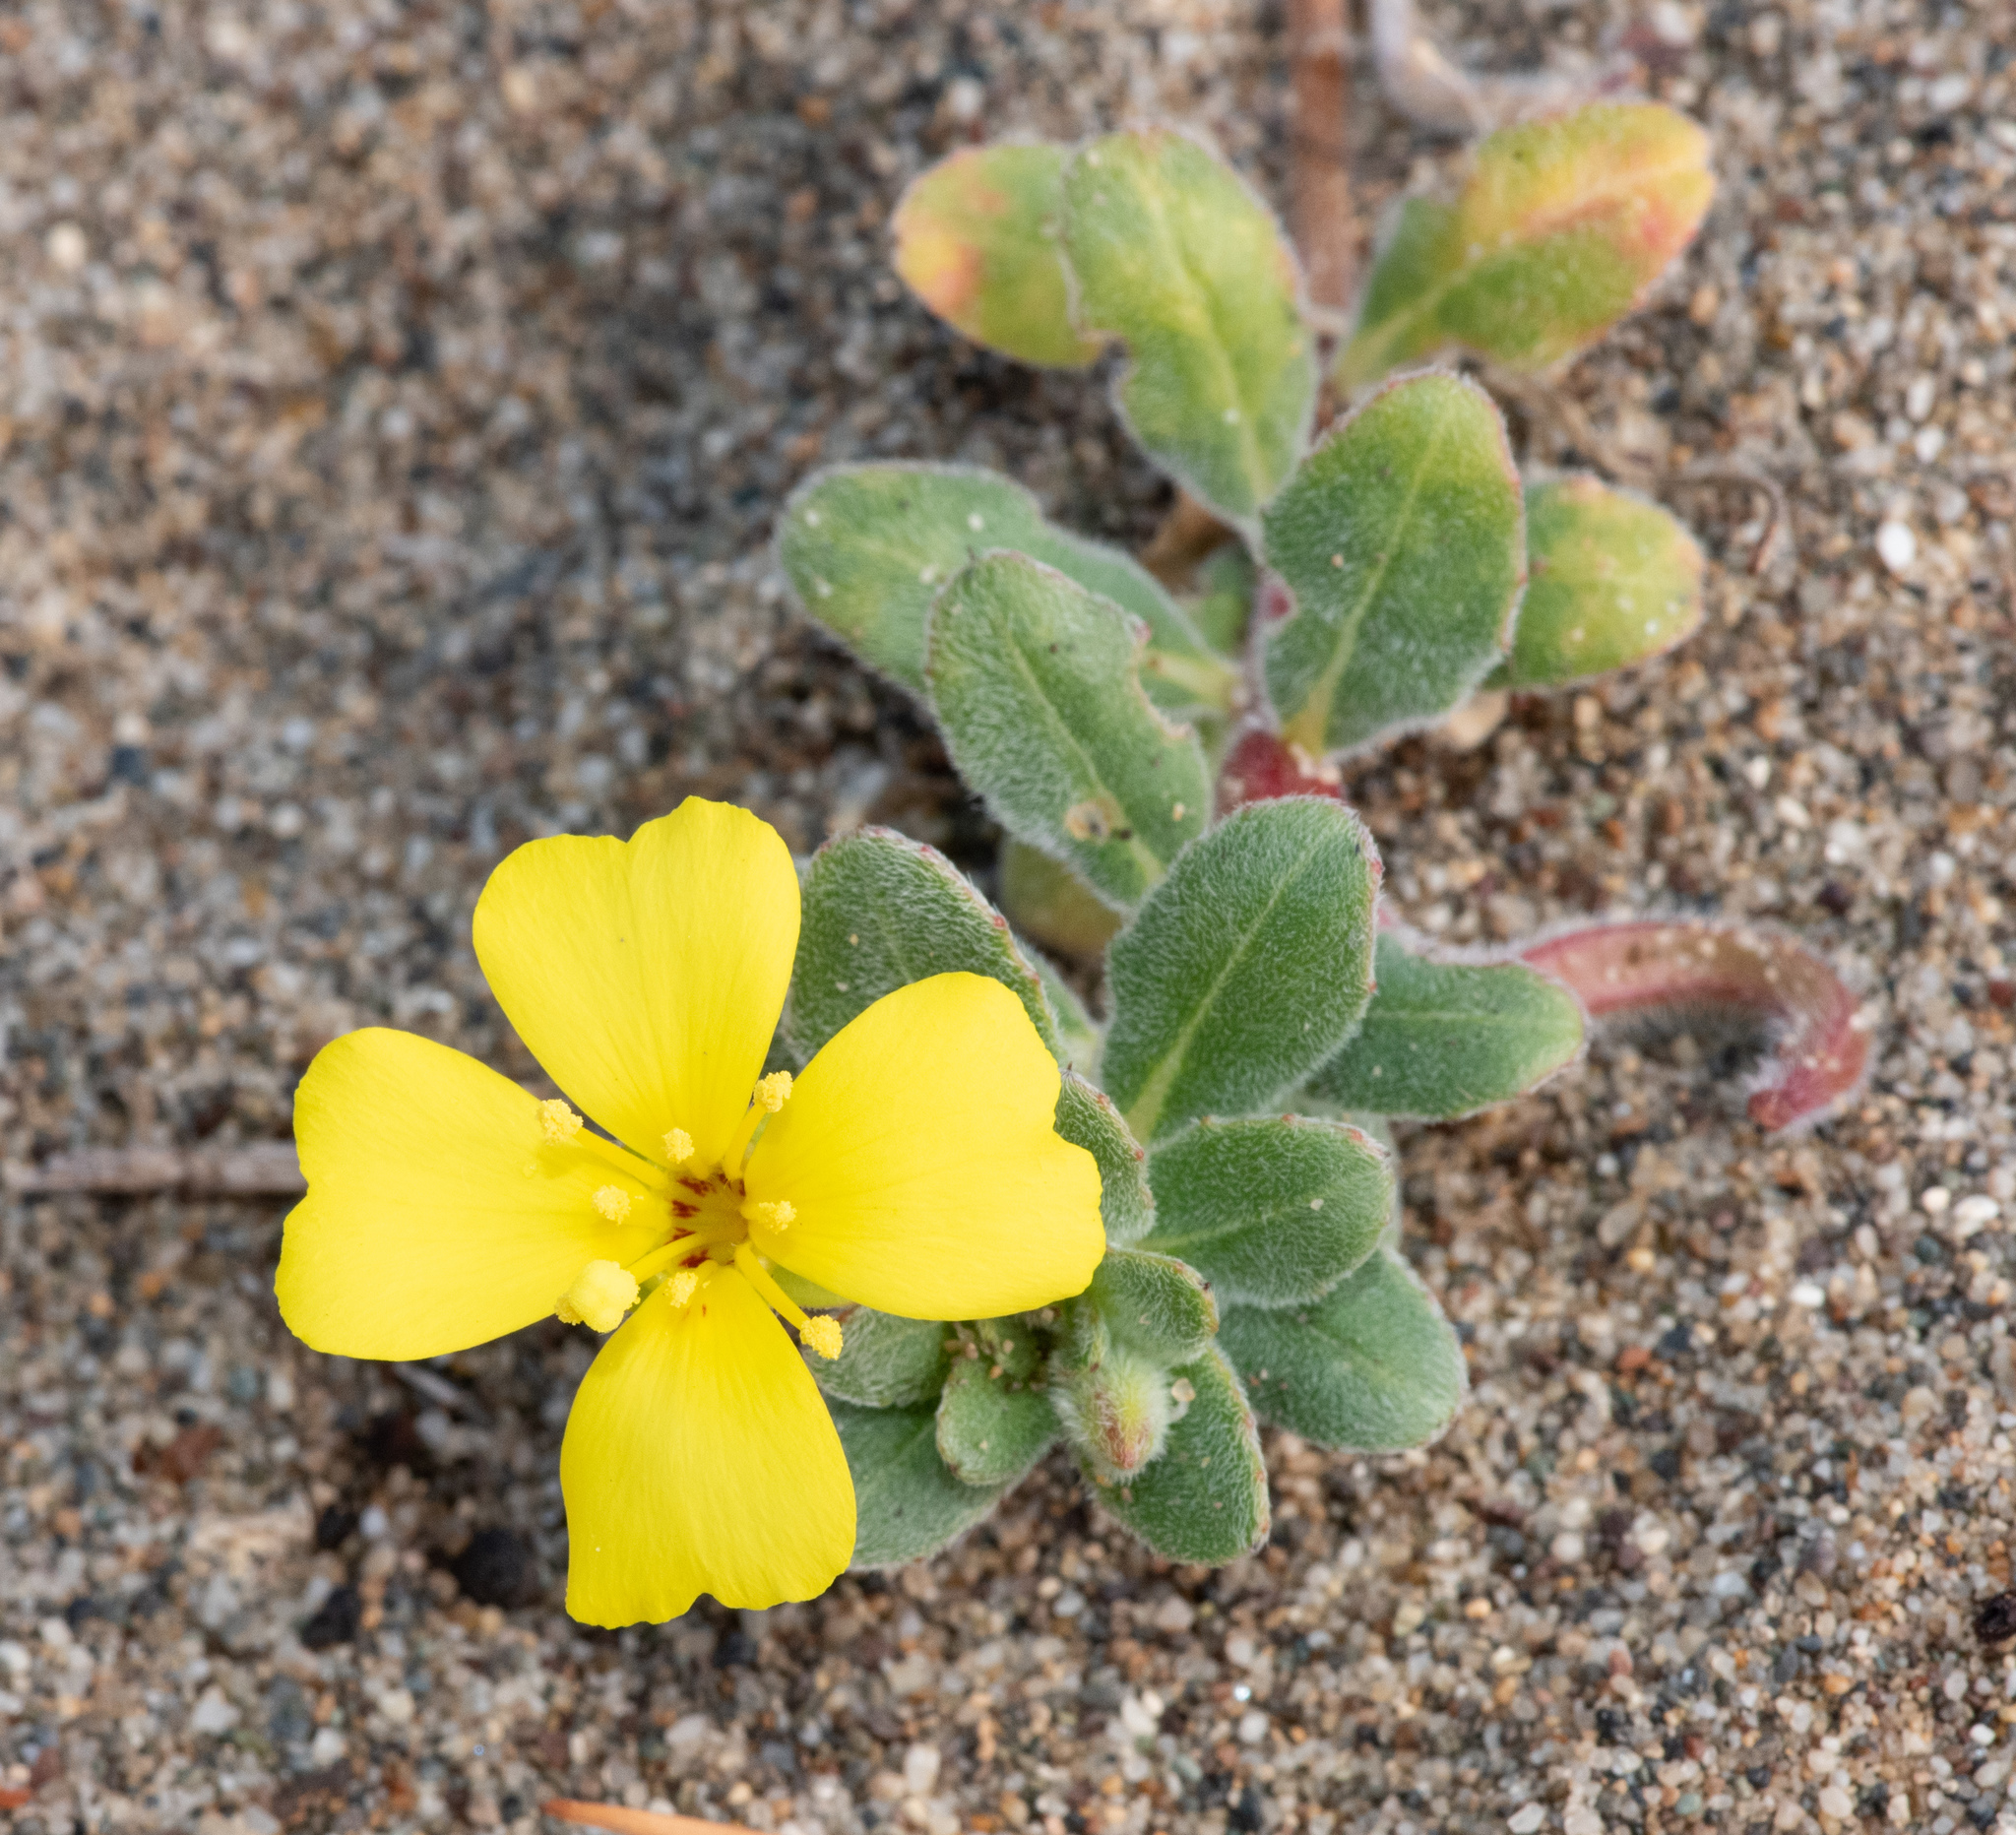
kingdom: Plantae
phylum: Tracheophyta
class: Magnoliopsida
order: Myrtales
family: Onagraceae
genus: Camissoniopsis
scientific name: Camissoniopsis cheiranthifolia
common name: Beach suncup
